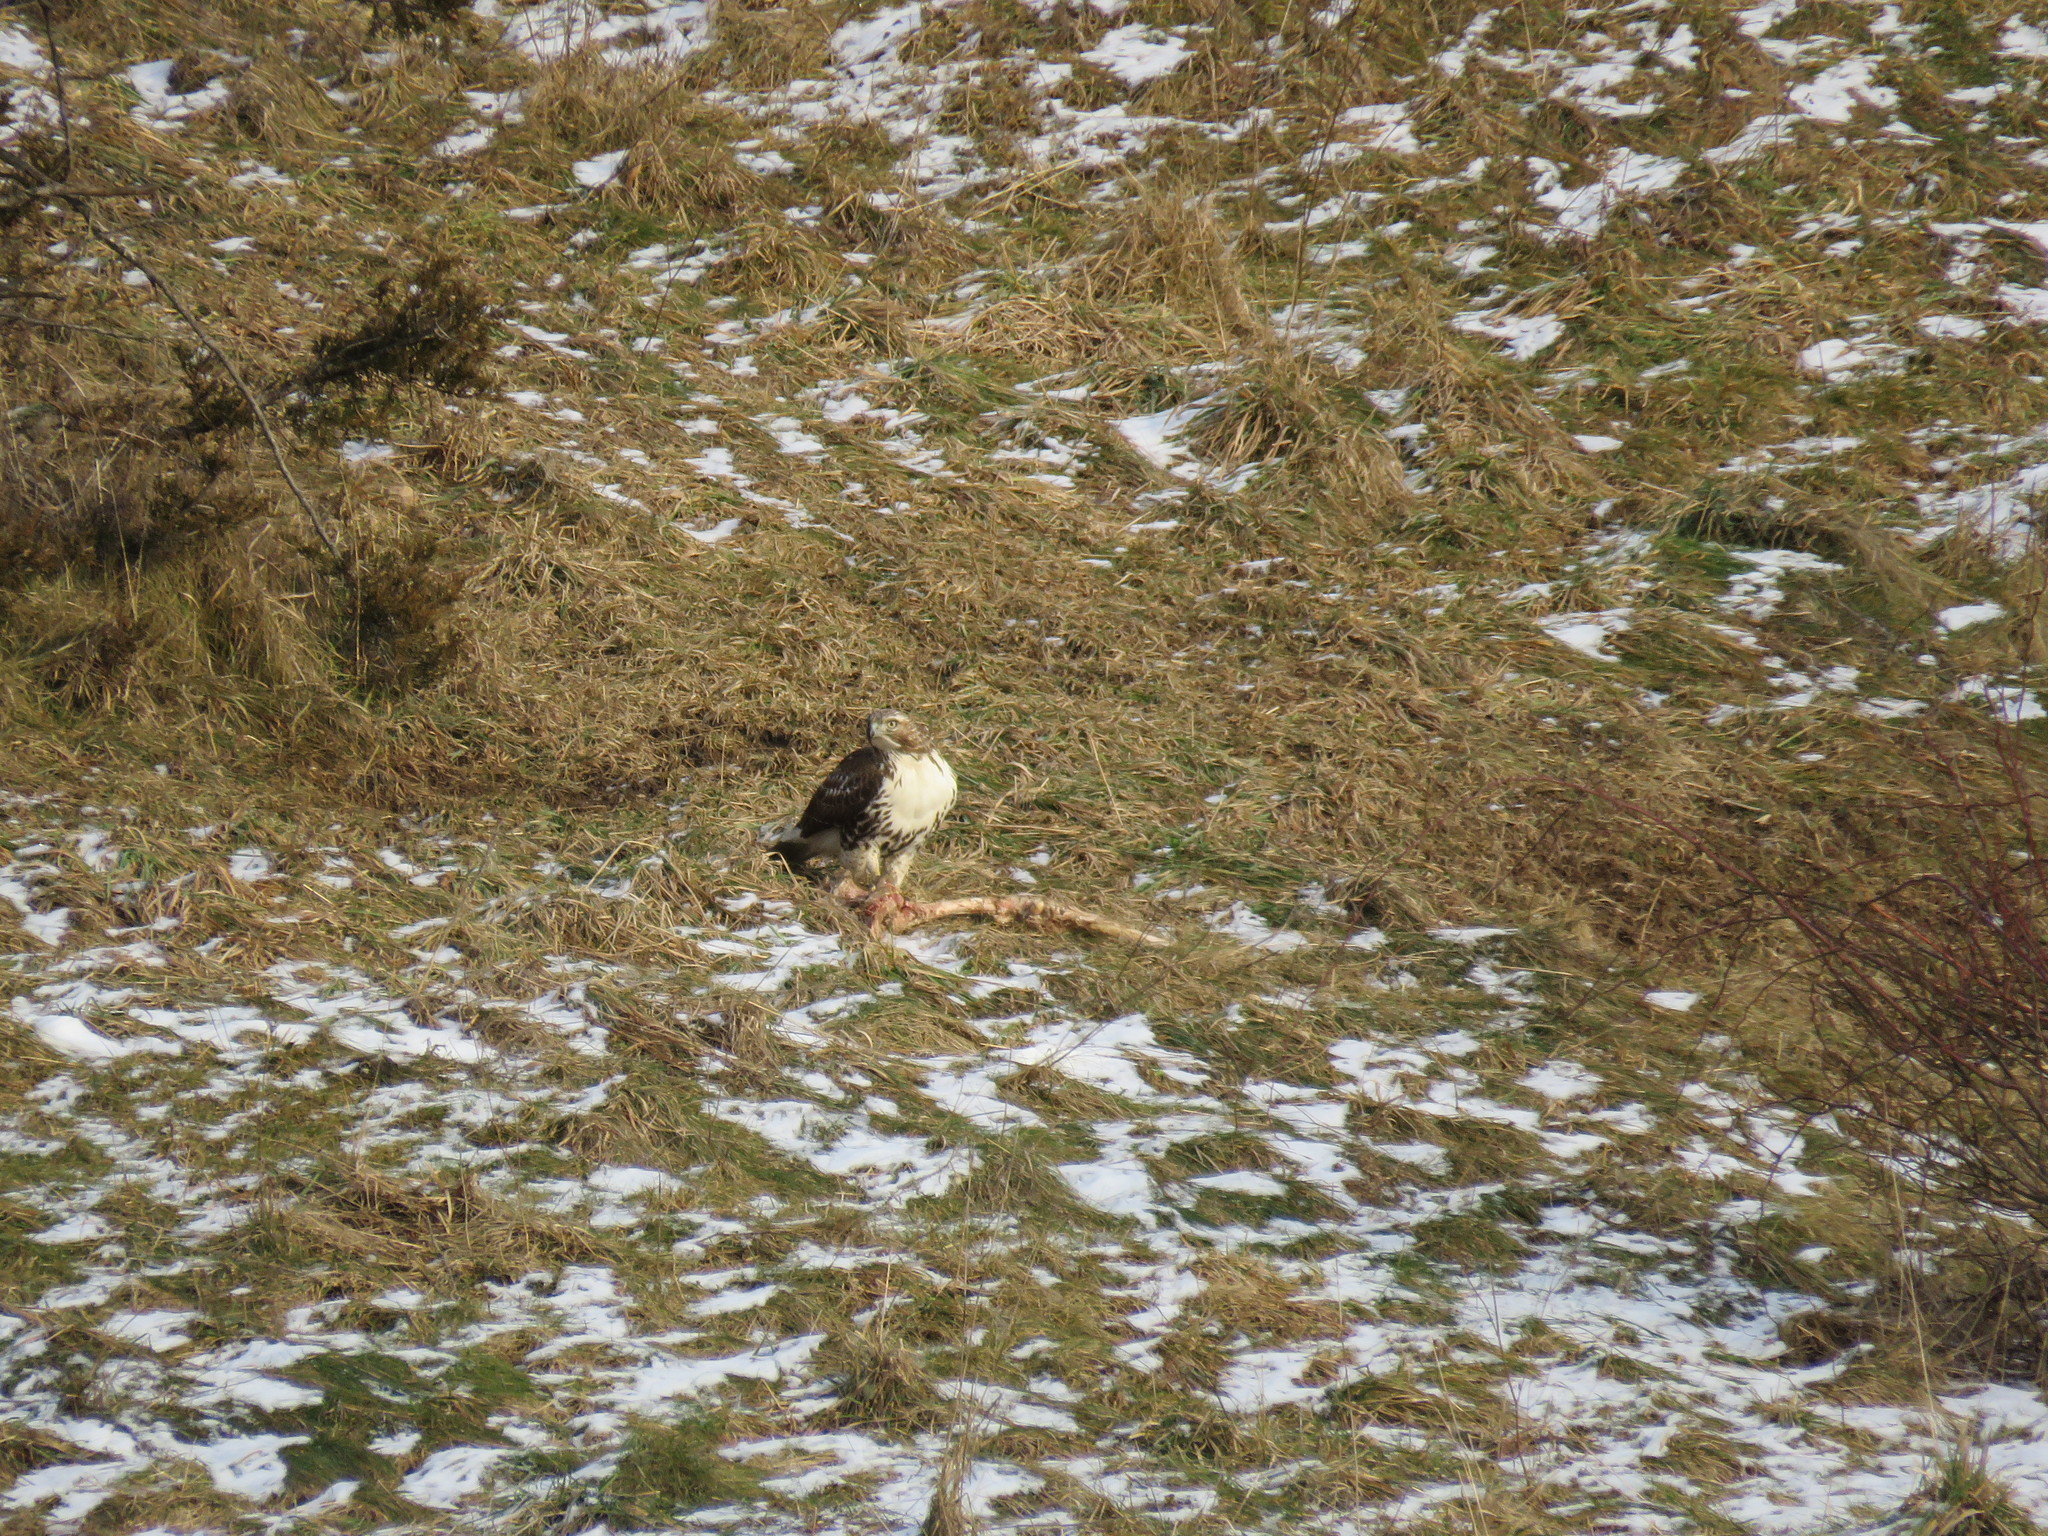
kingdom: Animalia
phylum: Chordata
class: Aves
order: Accipitriformes
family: Accipitridae
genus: Buteo
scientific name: Buteo jamaicensis
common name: Red-tailed hawk
